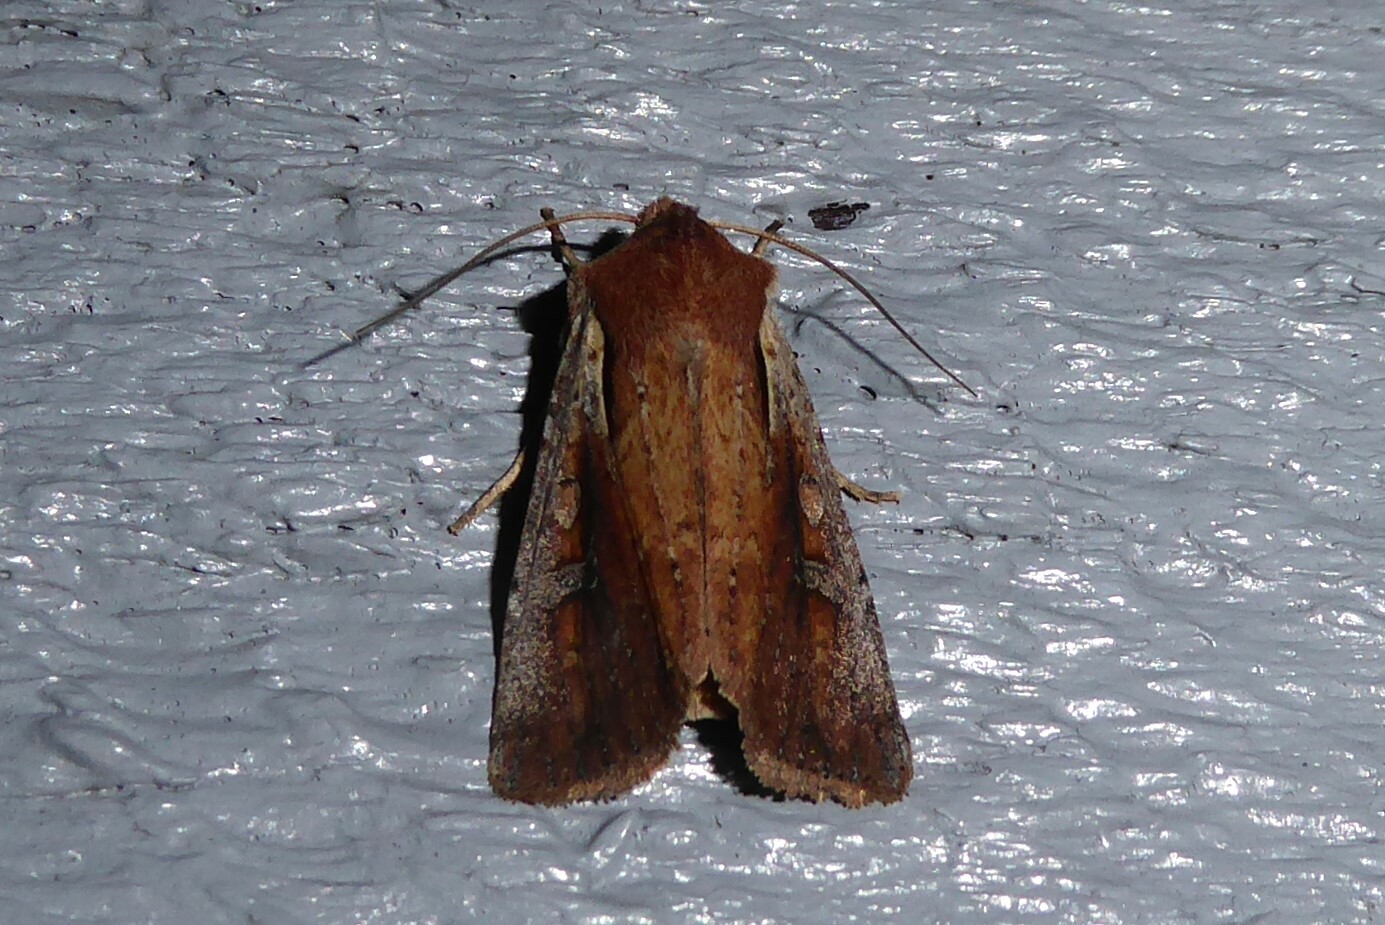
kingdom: Animalia
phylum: Arthropoda
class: Insecta
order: Lepidoptera
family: Noctuidae
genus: Ichneutica
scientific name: Ichneutica atristriga
